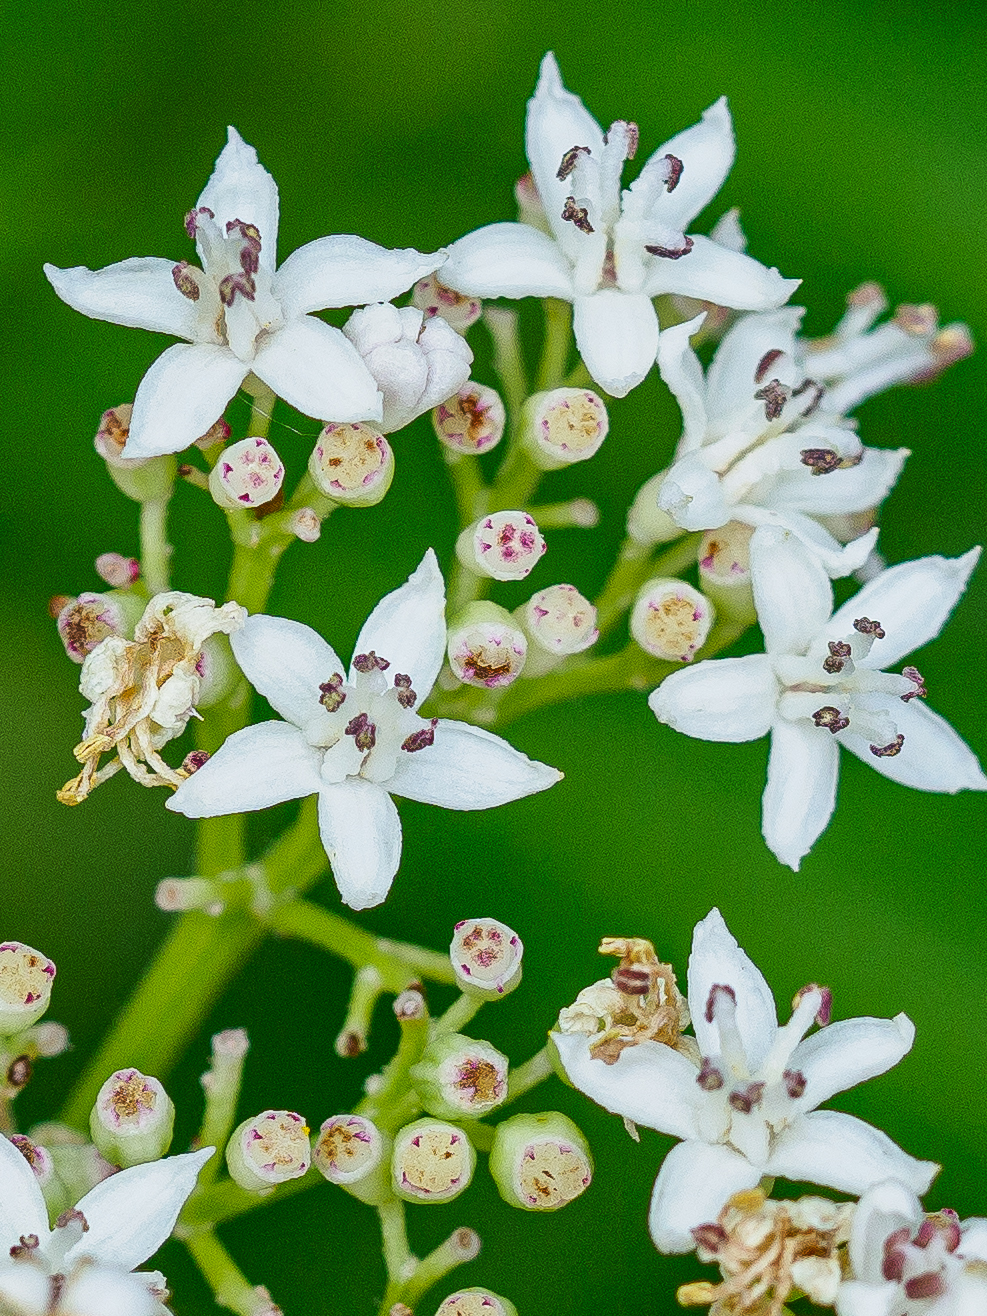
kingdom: Plantae
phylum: Tracheophyta
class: Magnoliopsida
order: Dipsacales
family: Viburnaceae
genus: Sambucus
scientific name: Sambucus ebulus
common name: Dwarf elder
